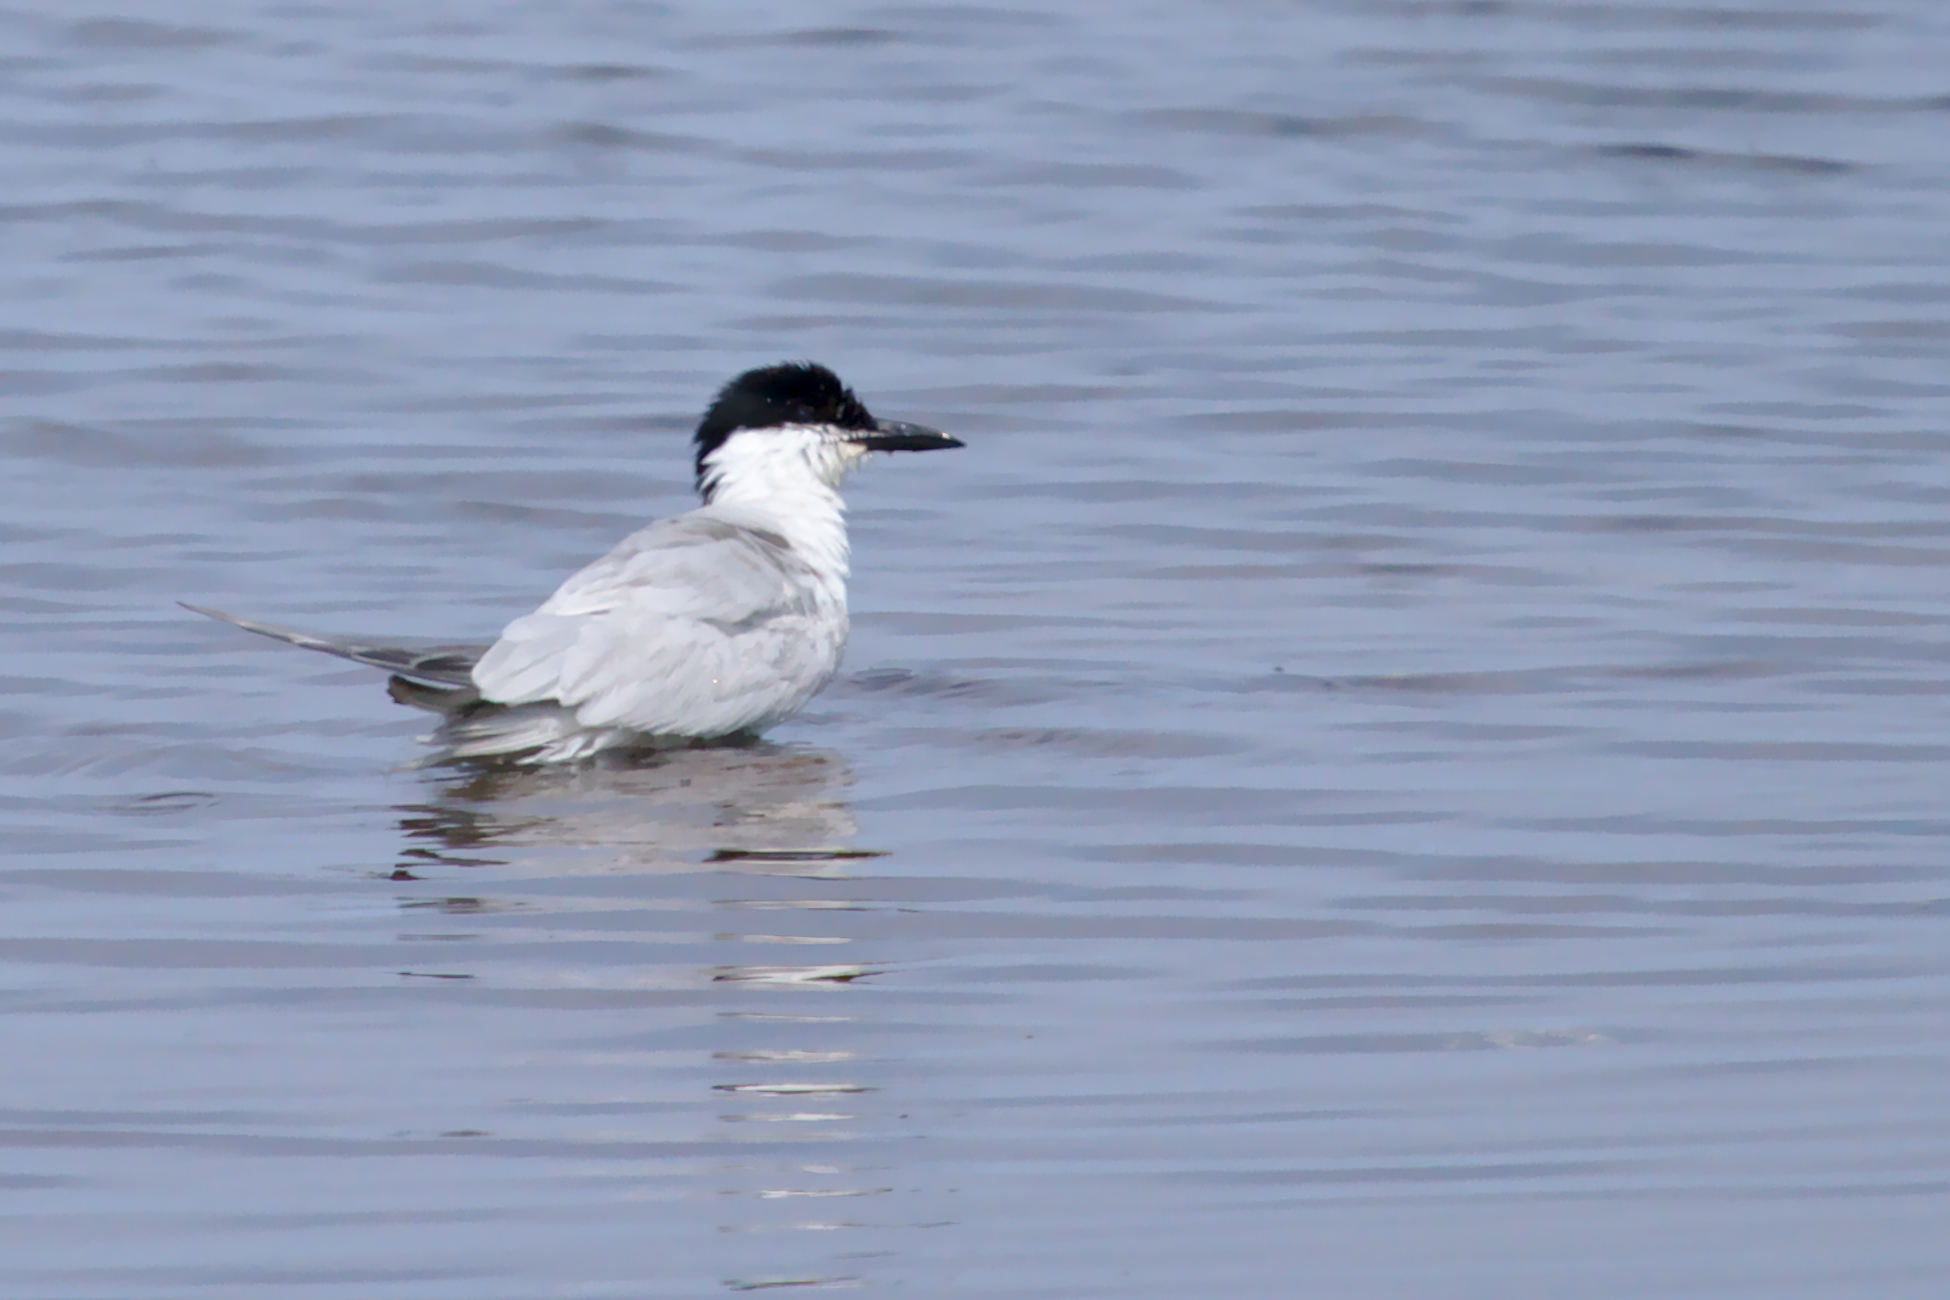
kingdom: Animalia
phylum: Chordata
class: Aves
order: Charadriiformes
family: Laridae
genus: Gelochelidon
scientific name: Gelochelidon nilotica
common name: Gull-billed tern
